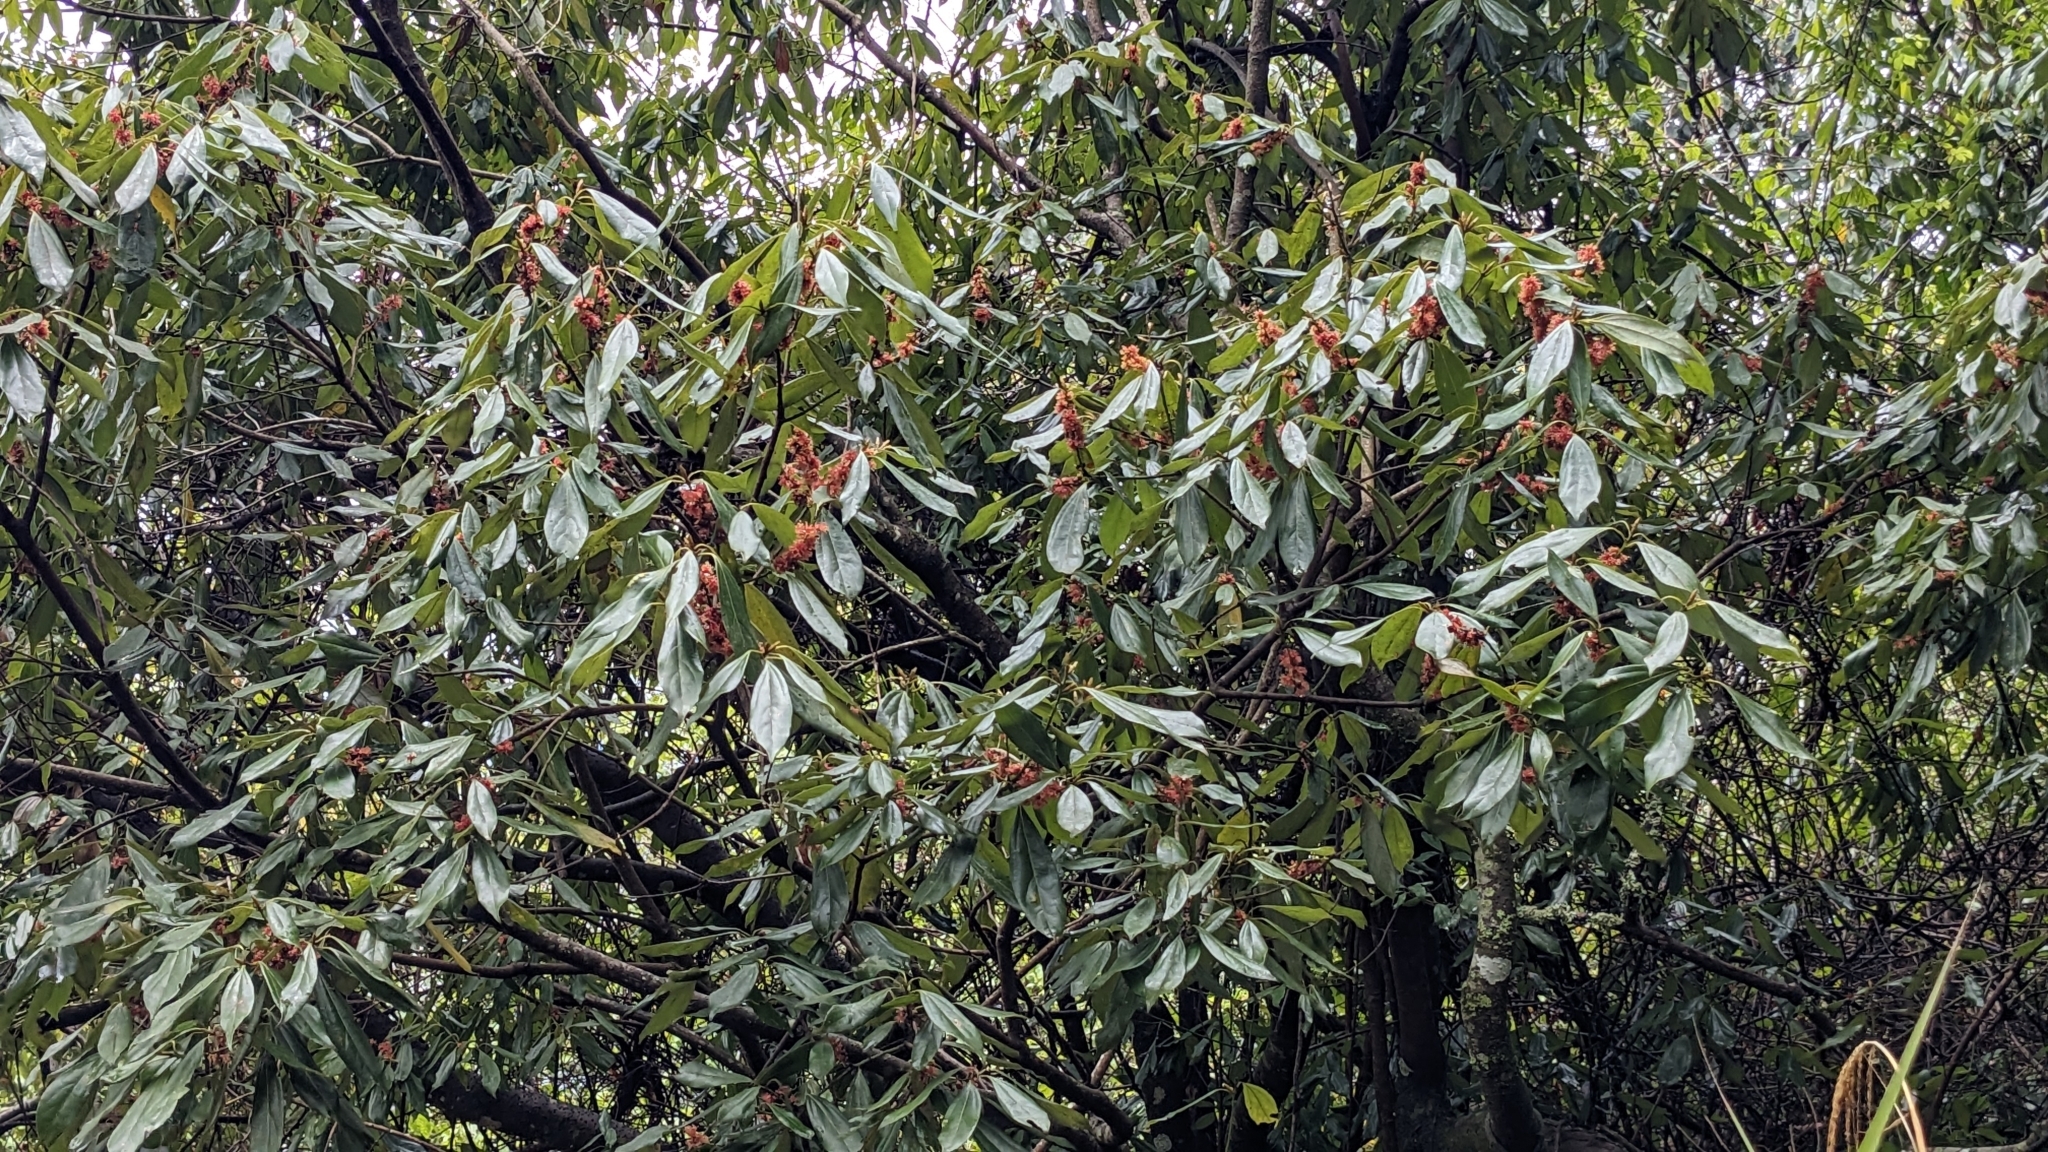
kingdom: Plantae
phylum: Tracheophyta
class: Magnoliopsida
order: Laurales
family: Lauraceae
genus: Neolitsea
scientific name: Neolitsea konishii
